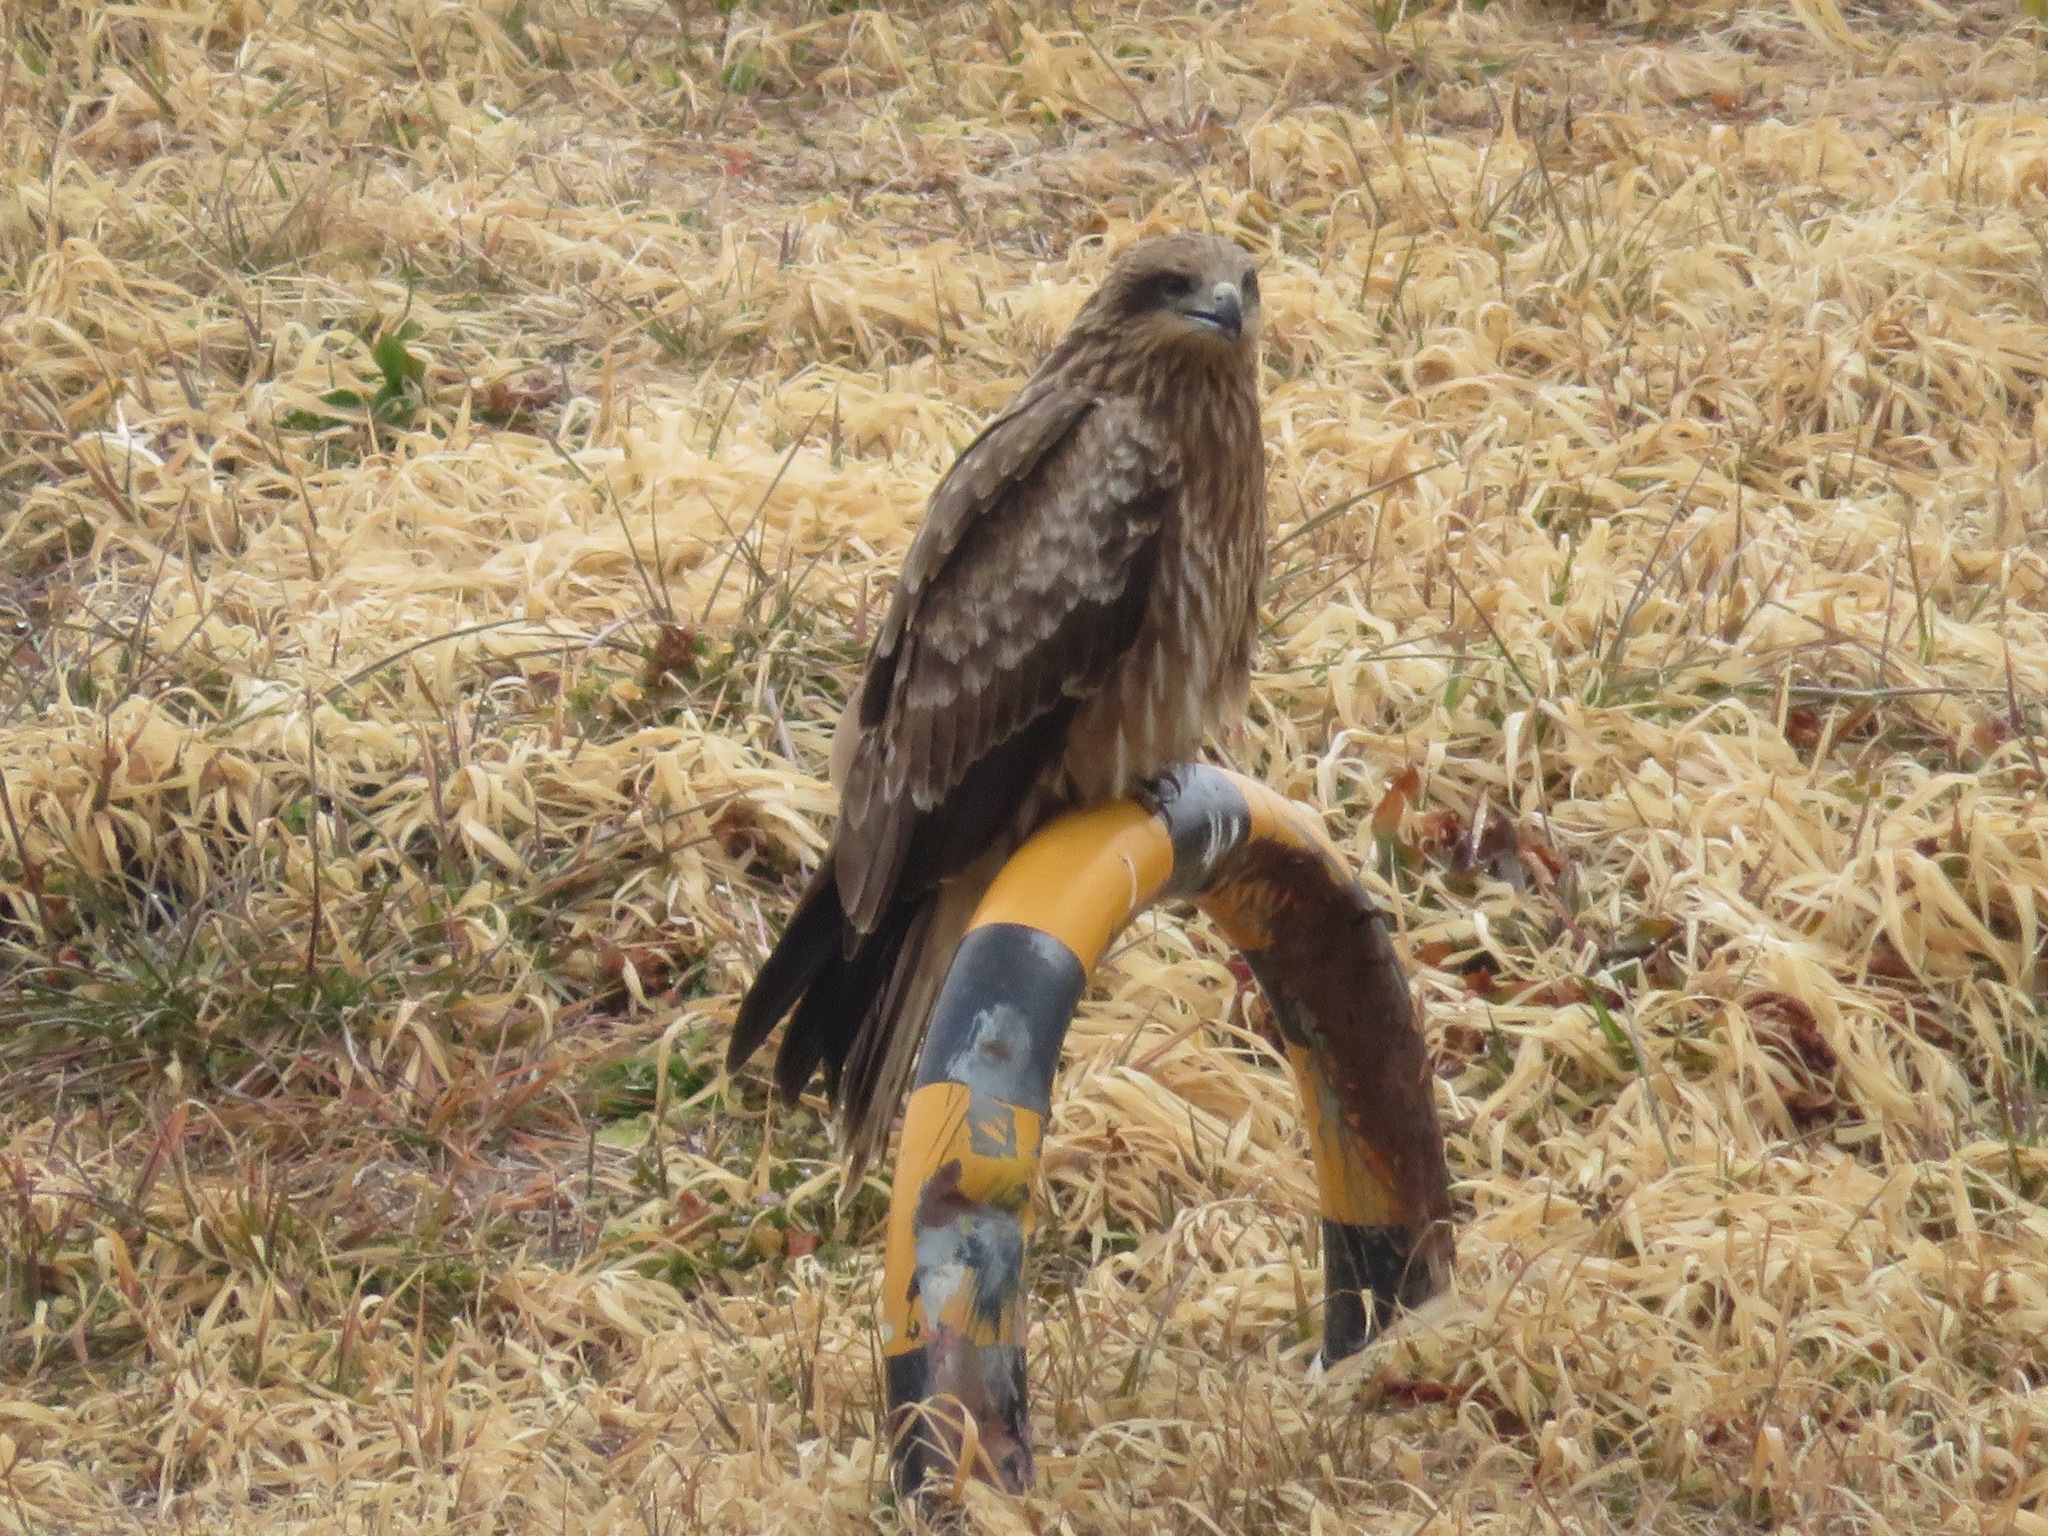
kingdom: Animalia
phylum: Chordata
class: Aves
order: Accipitriformes
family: Accipitridae
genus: Milvus
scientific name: Milvus migrans
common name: Black kite
